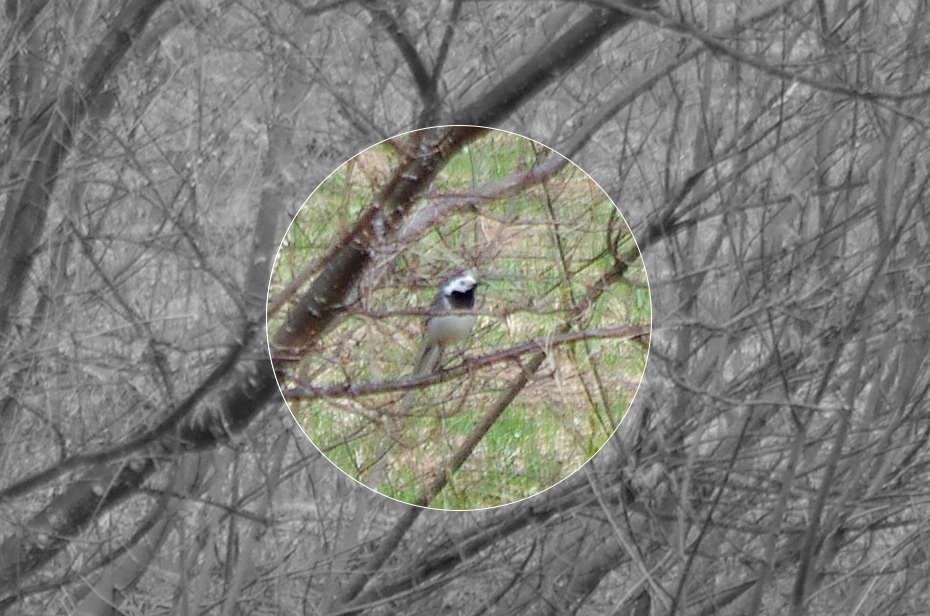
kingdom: Animalia
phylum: Chordata
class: Aves
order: Passeriformes
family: Motacillidae
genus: Motacilla
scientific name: Motacilla alba
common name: White wagtail
